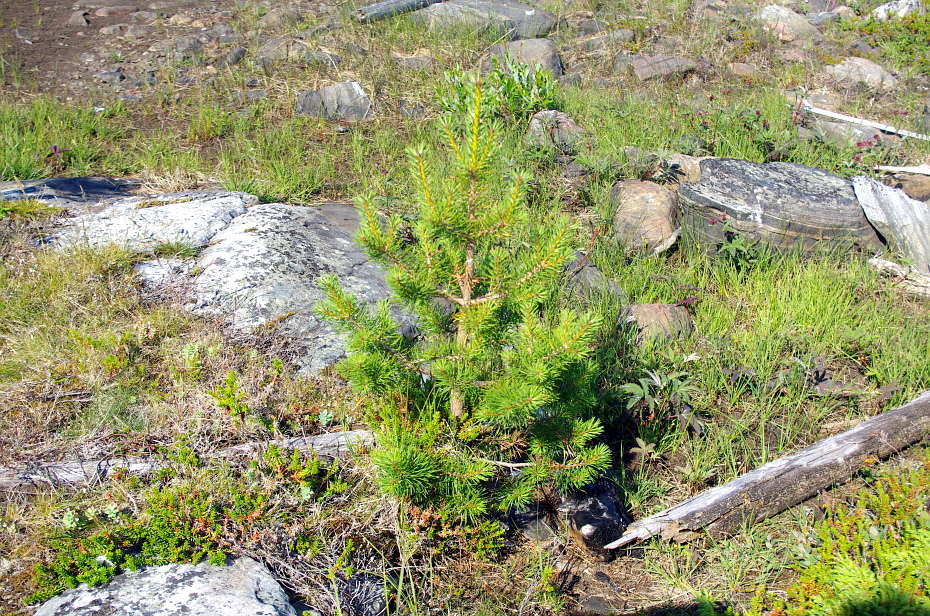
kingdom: Plantae
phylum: Tracheophyta
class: Pinopsida
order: Pinales
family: Pinaceae
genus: Pinus
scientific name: Pinus sylvestris
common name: Scots pine
